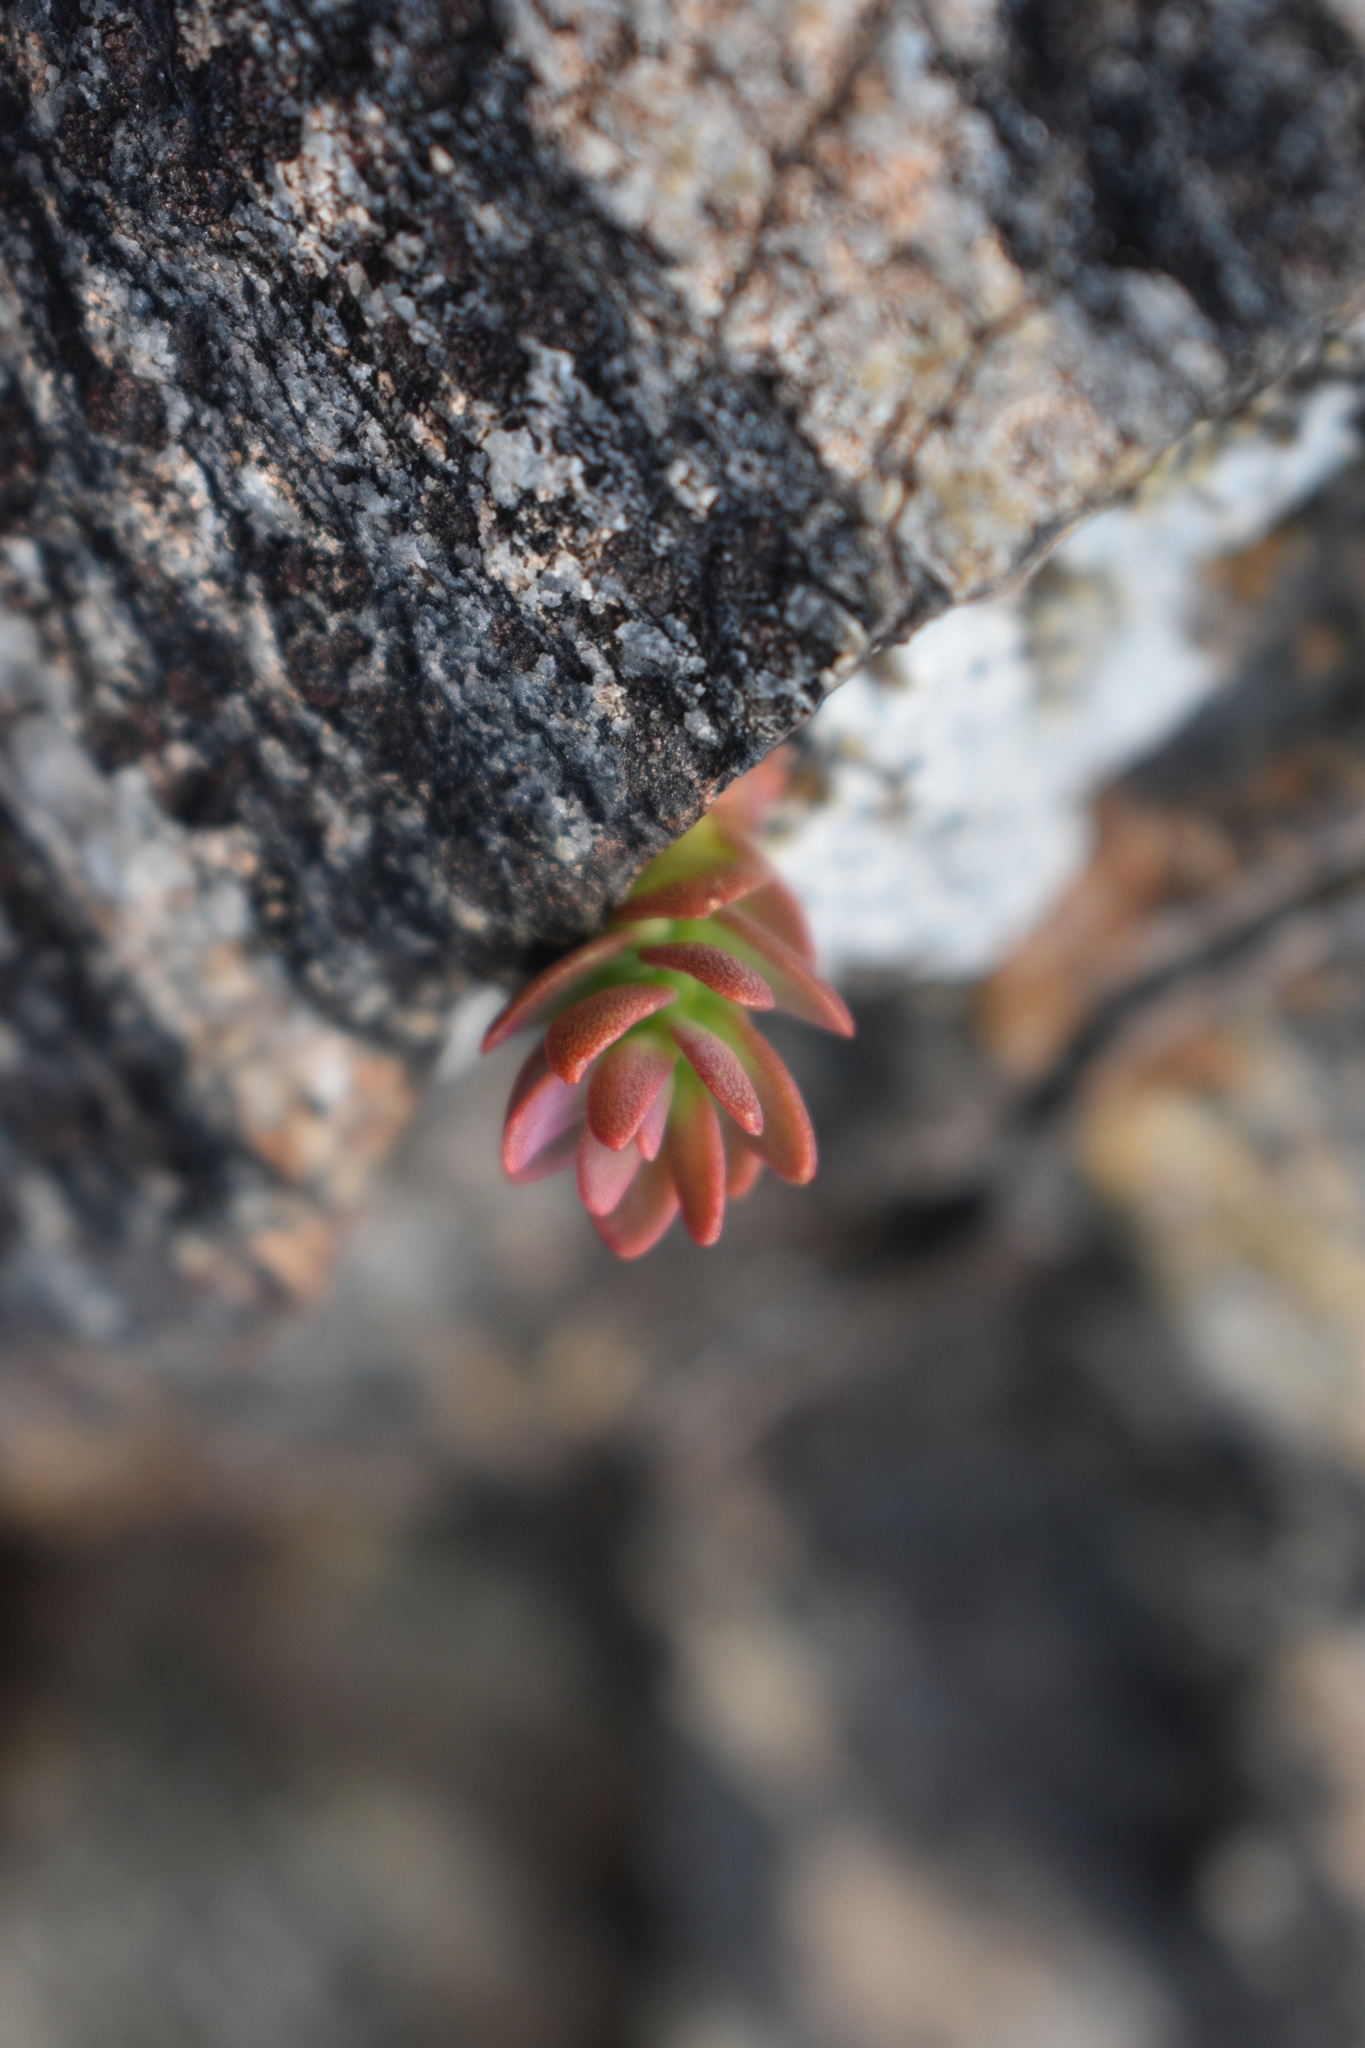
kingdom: Plantae
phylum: Tracheophyta
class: Magnoliopsida
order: Saxifragales
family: Crassulaceae
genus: Sedum
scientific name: Sedum lanceolatum
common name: Common stonecrop
